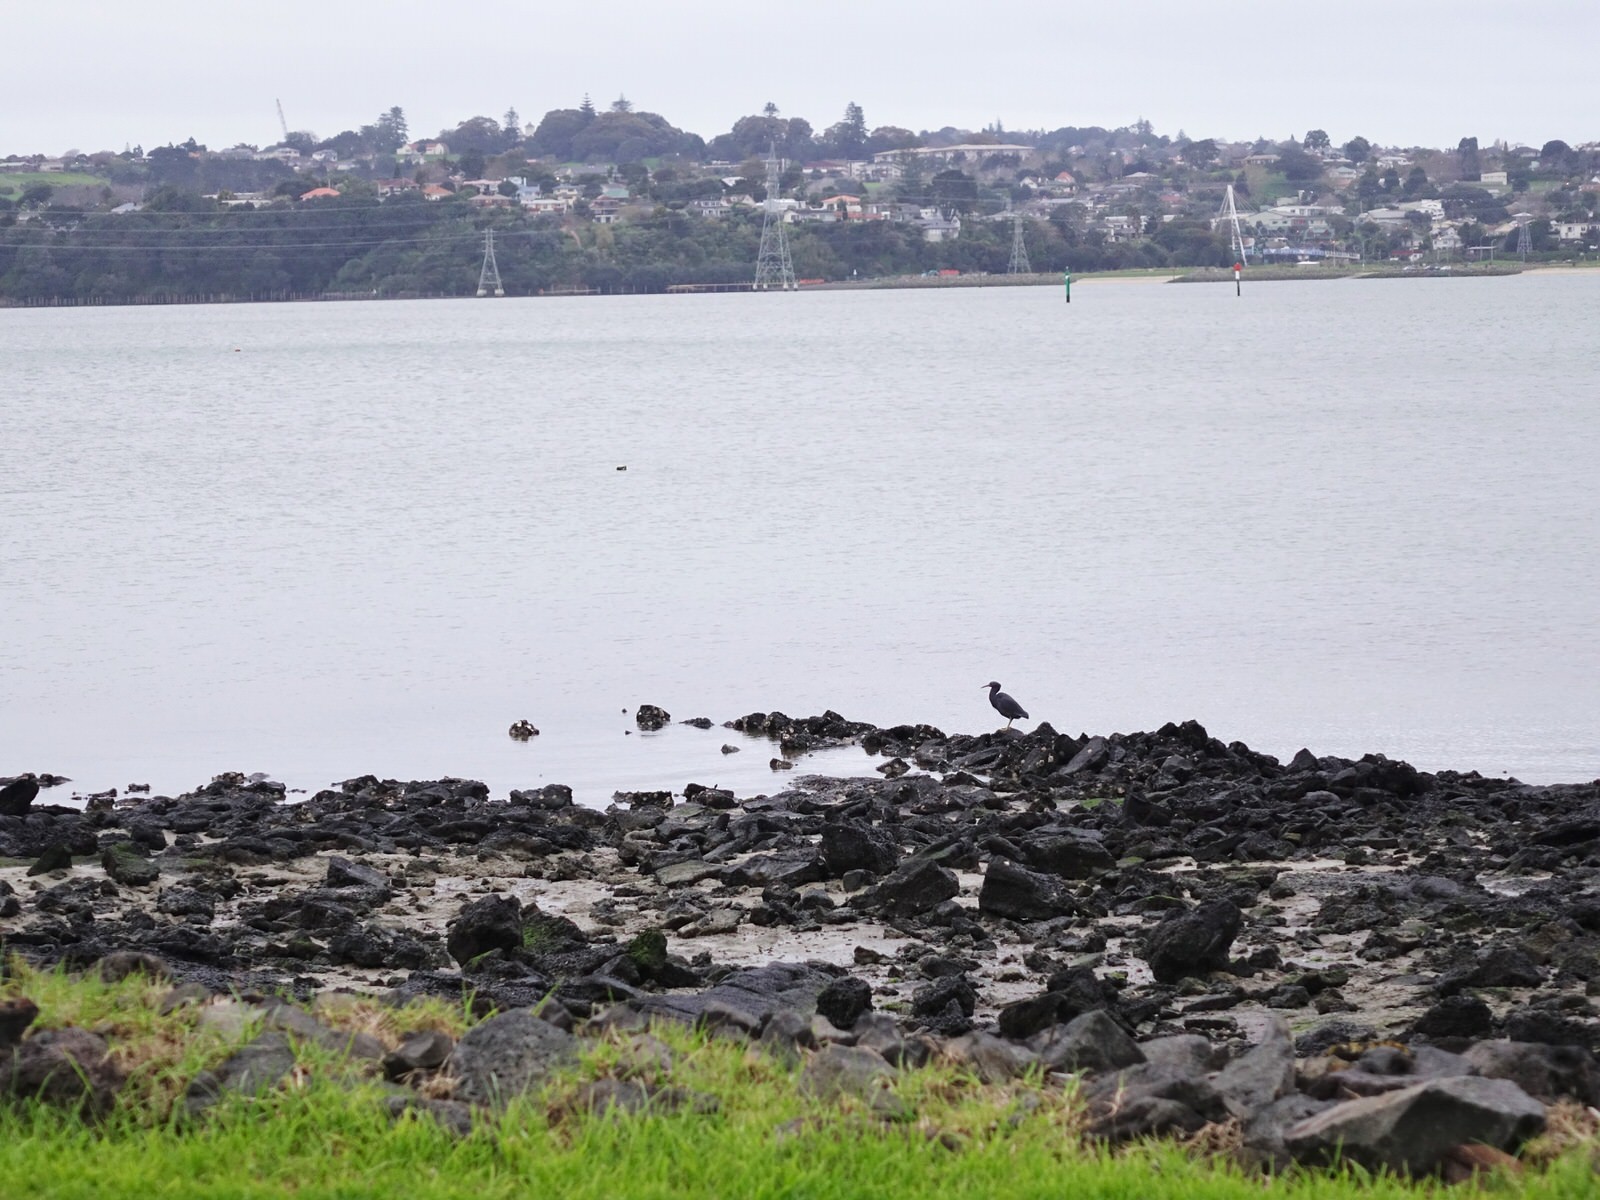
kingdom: Animalia
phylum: Chordata
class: Aves
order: Pelecaniformes
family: Ardeidae
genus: Egretta
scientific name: Egretta sacra
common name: Pacific reef heron
